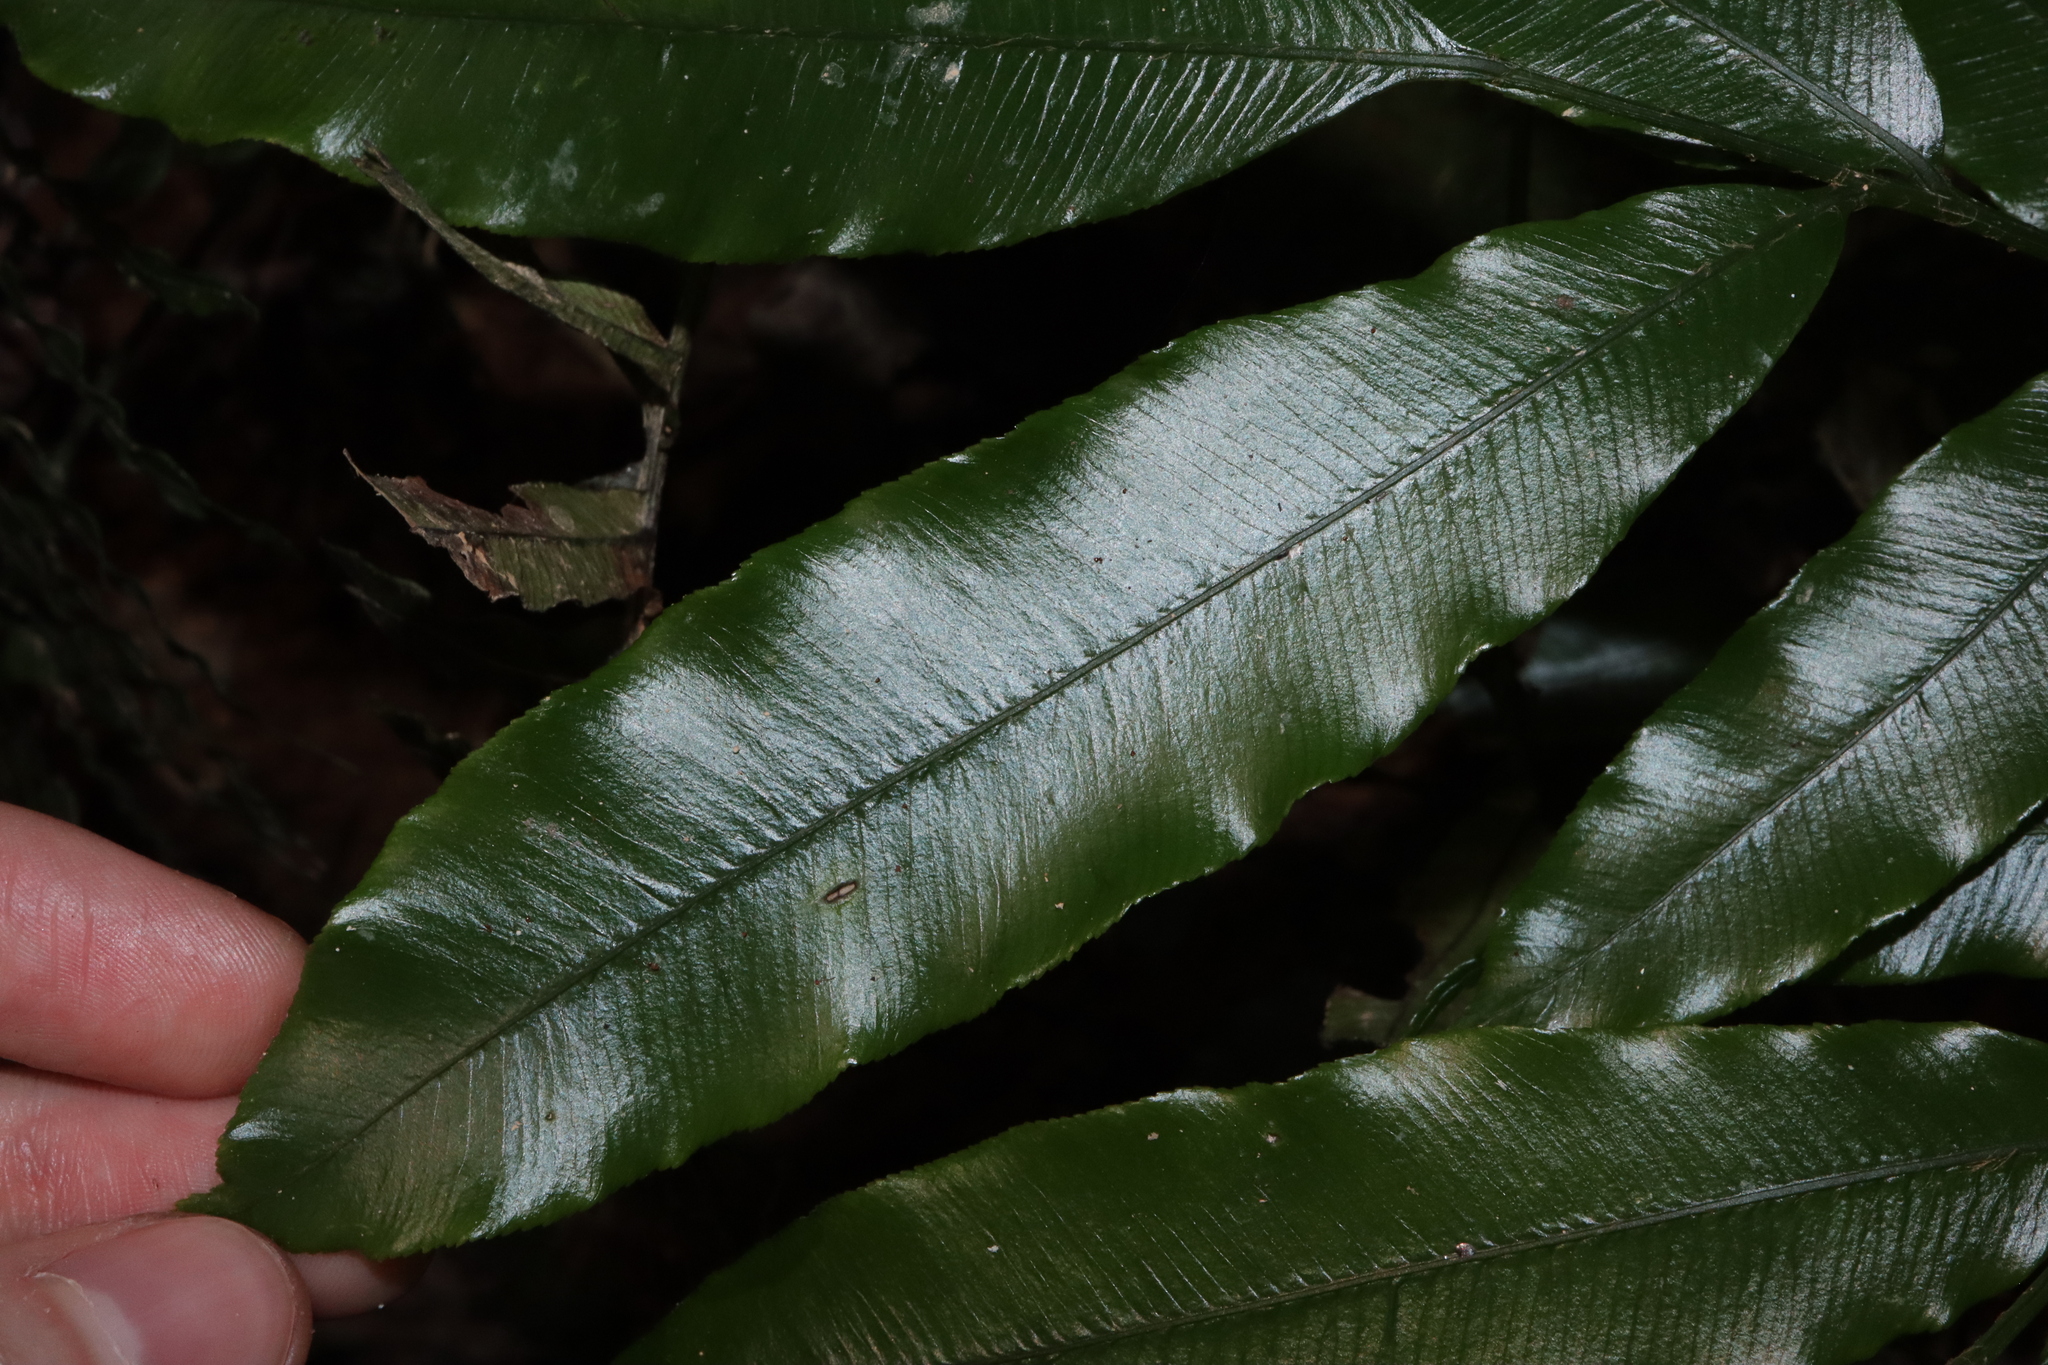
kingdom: Plantae
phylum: Tracheophyta
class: Polypodiopsida
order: Marattiales
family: Marattiaceae
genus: Ptisana
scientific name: Ptisana oreades
